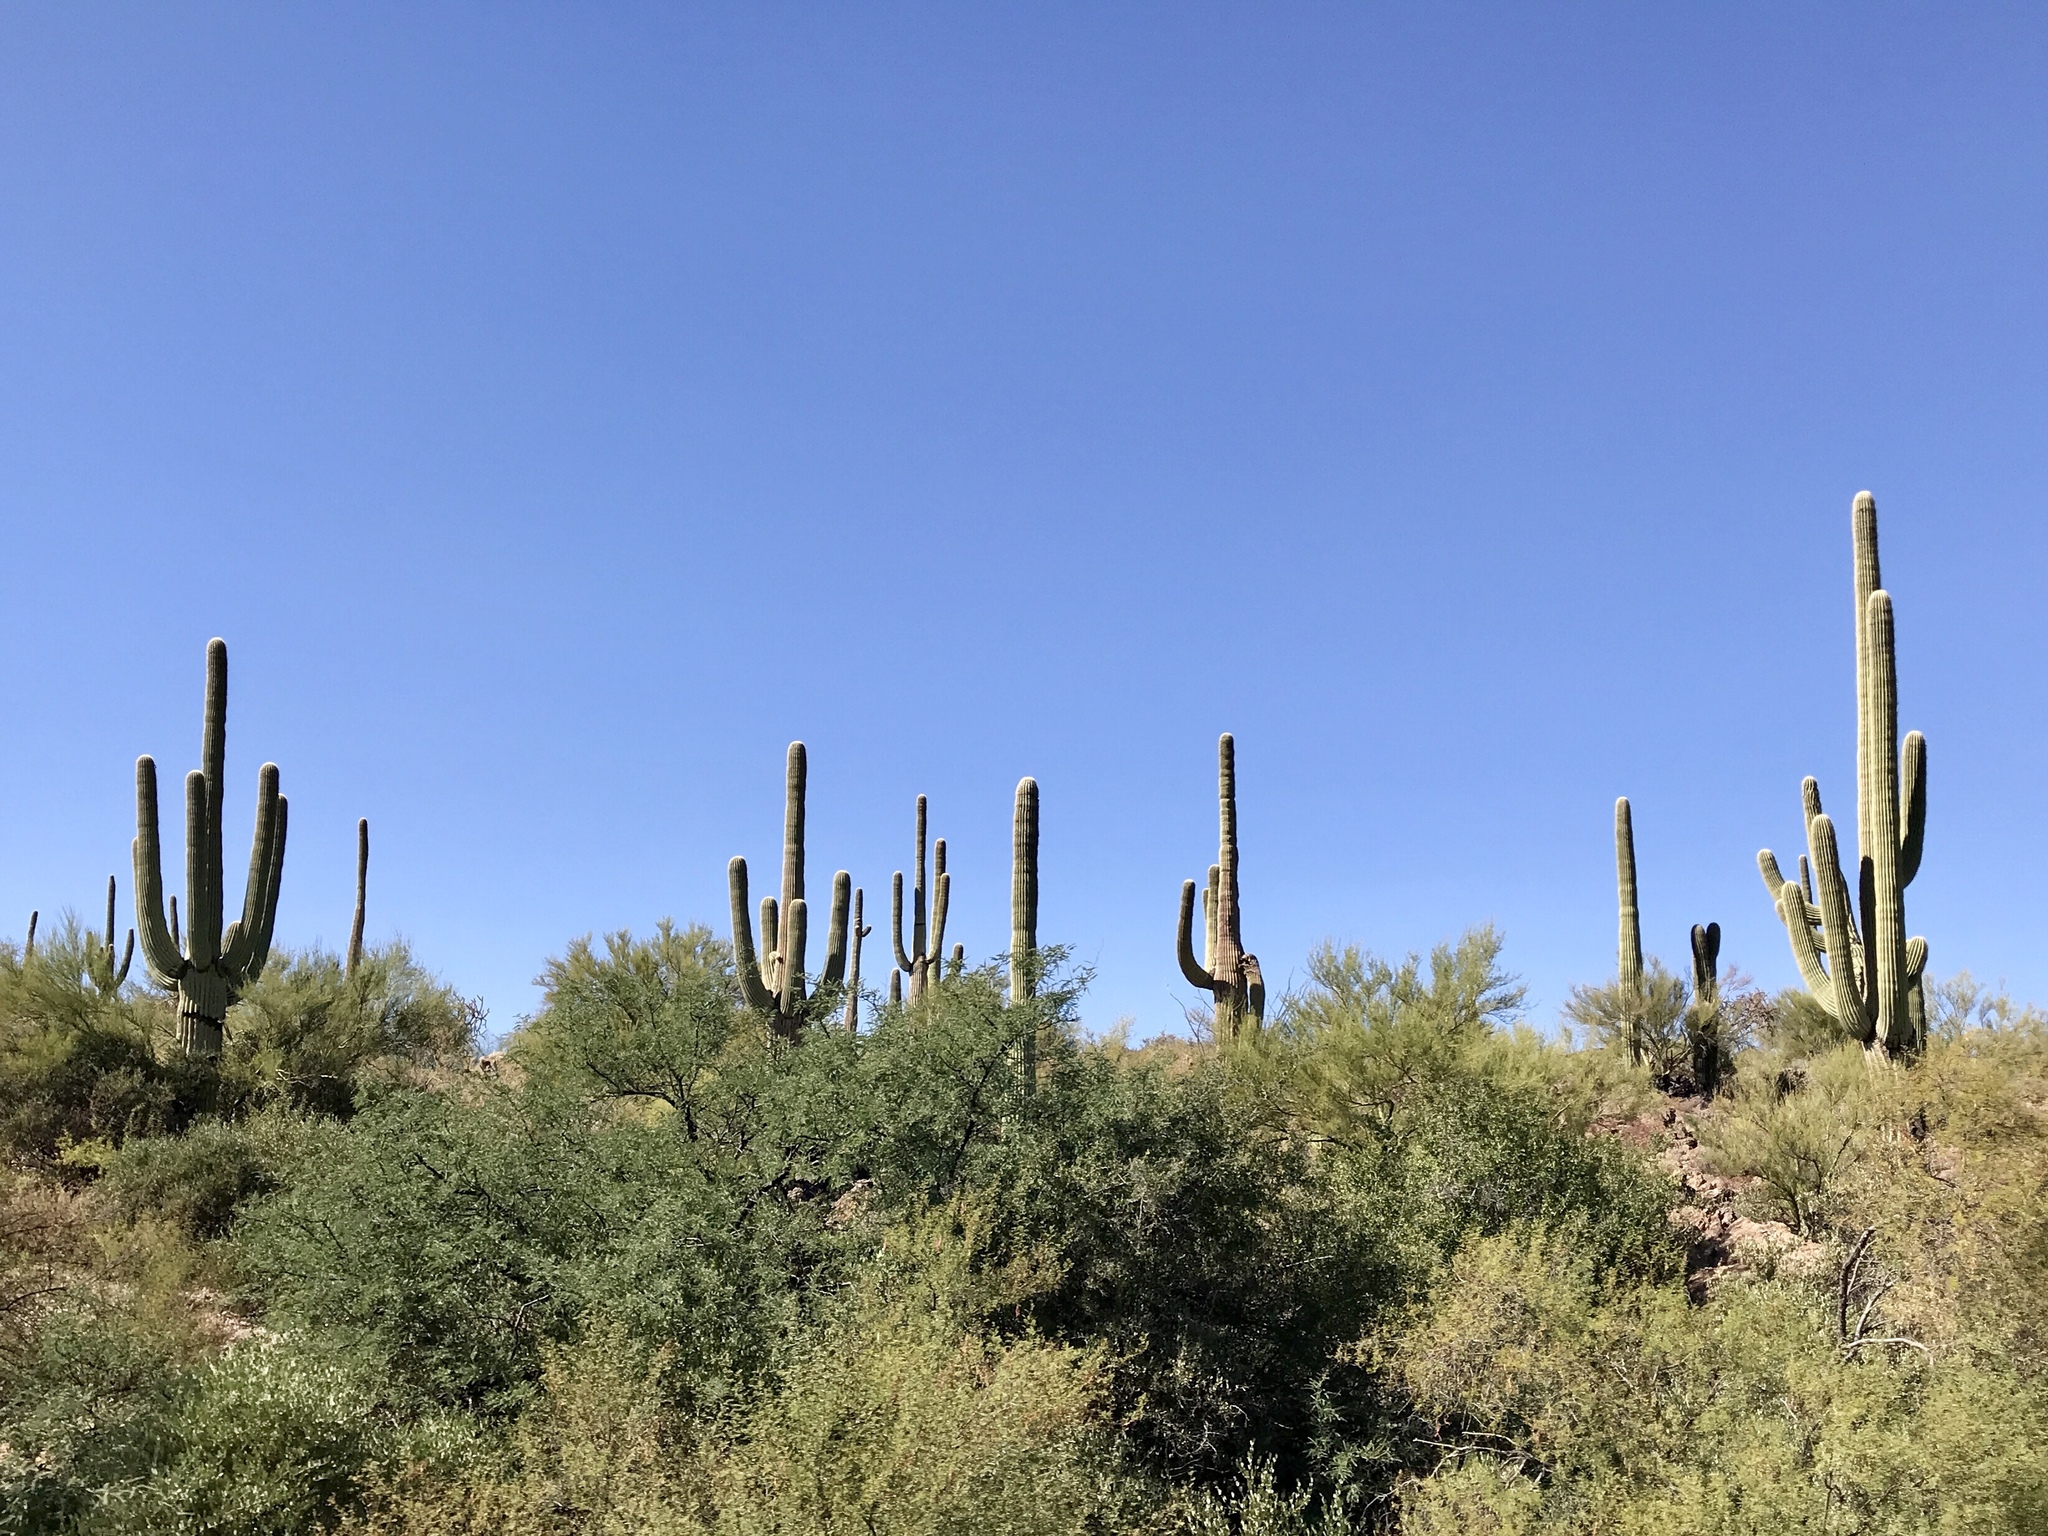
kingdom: Plantae
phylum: Tracheophyta
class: Magnoliopsida
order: Caryophyllales
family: Cactaceae
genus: Carnegiea
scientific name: Carnegiea gigantea
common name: Saguaro
